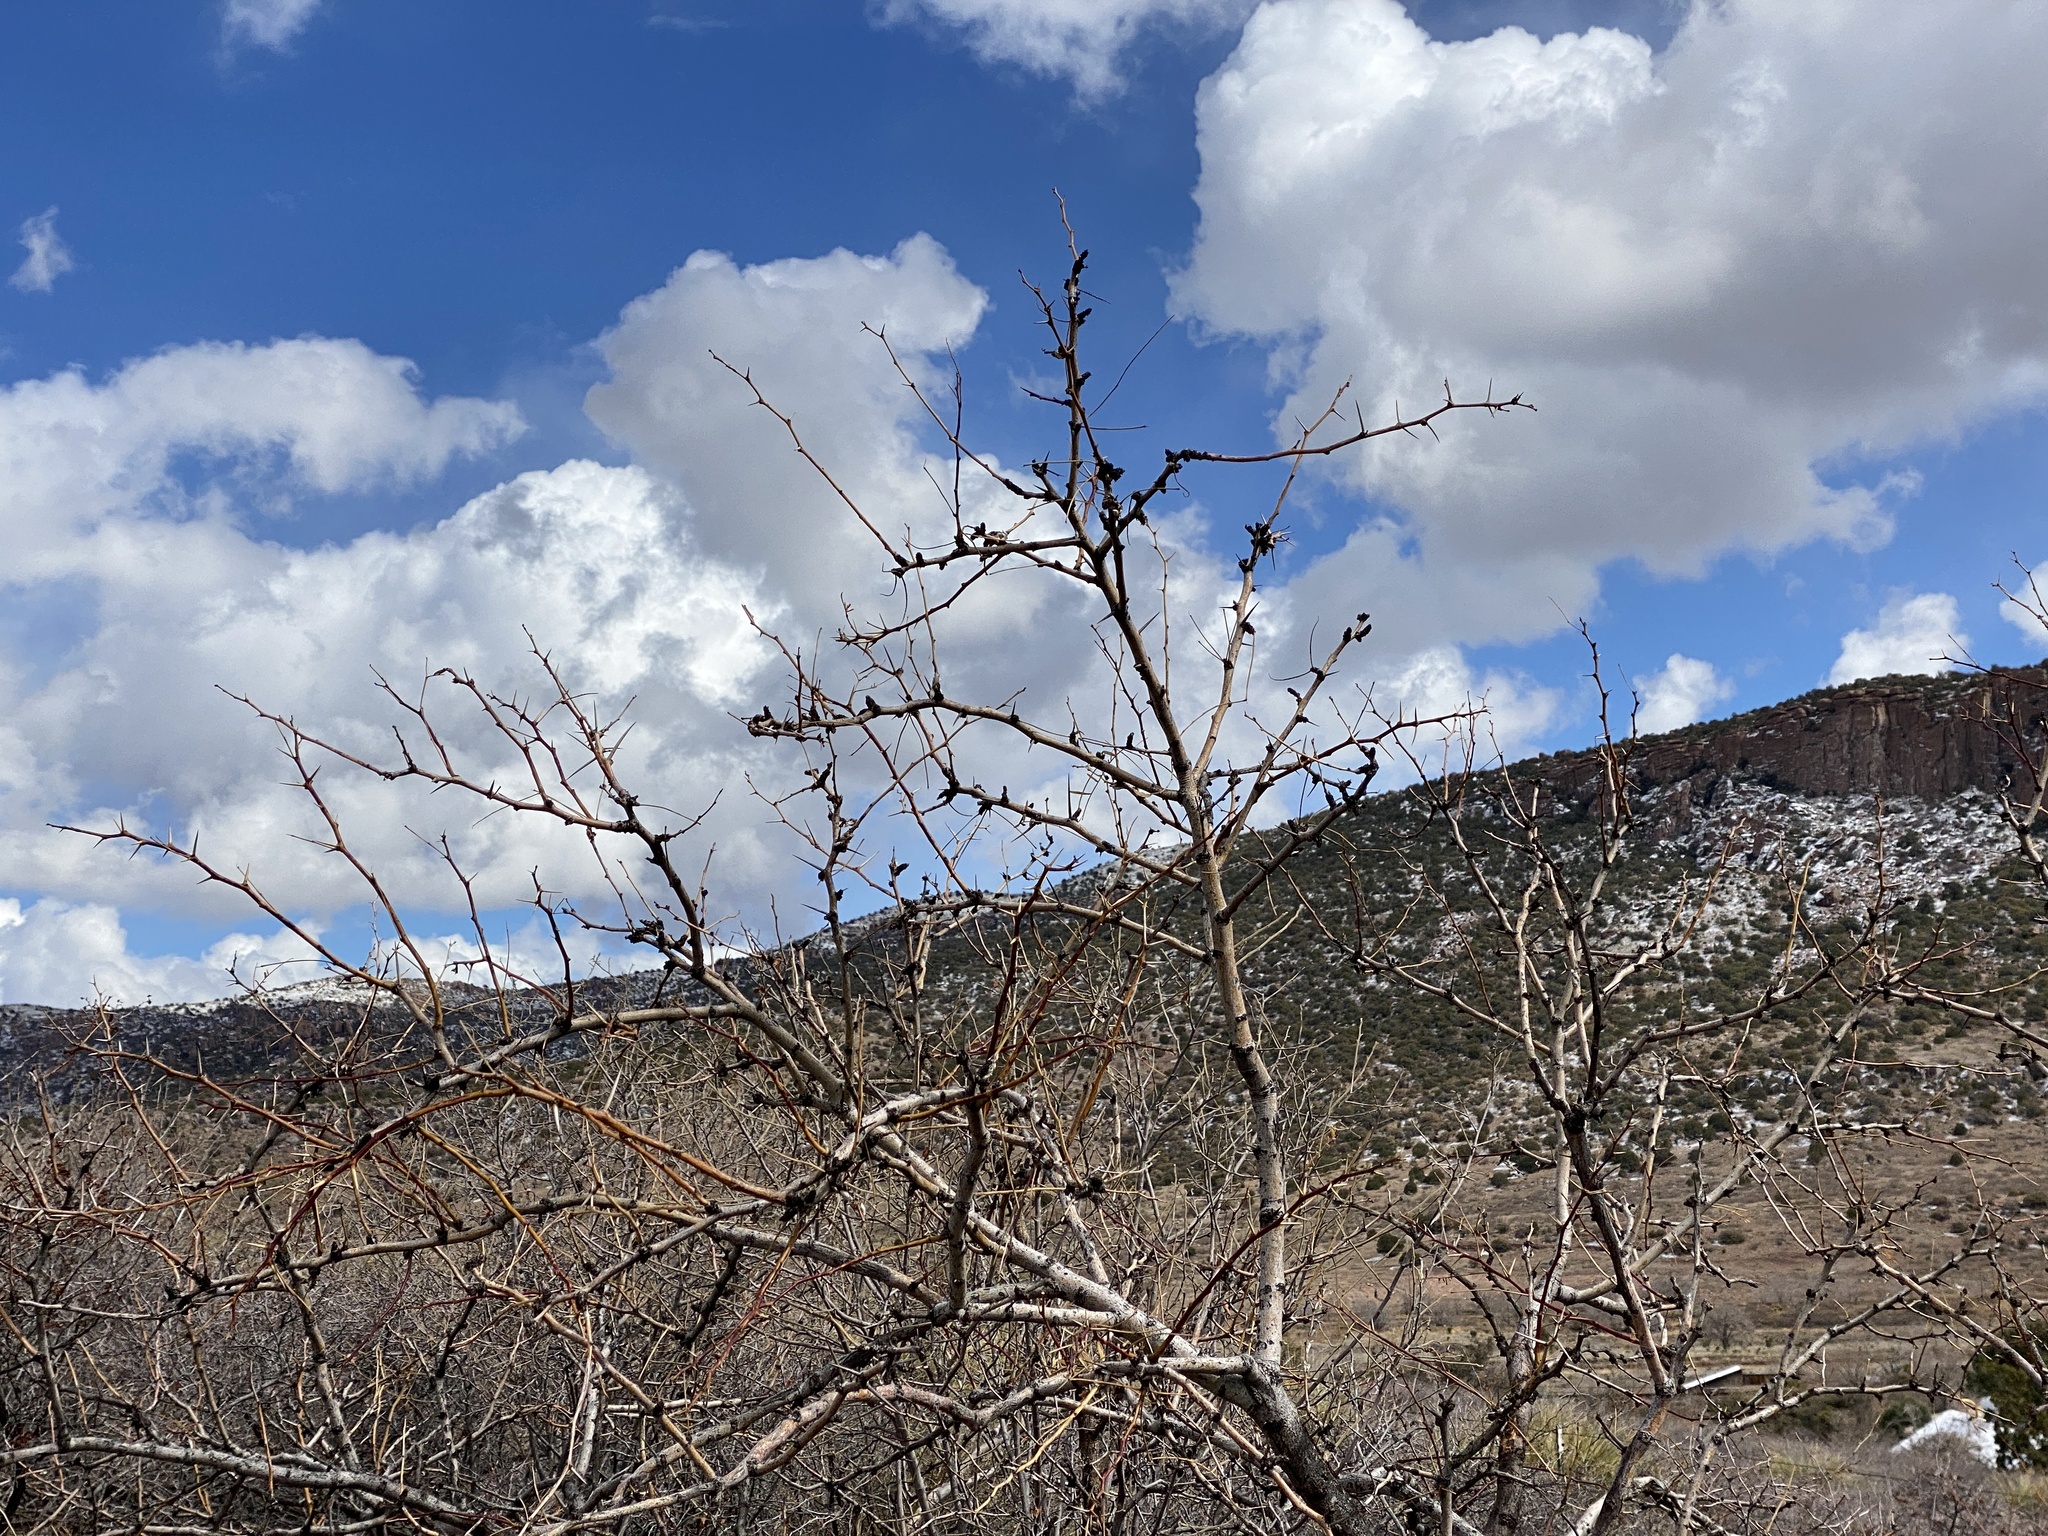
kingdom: Plantae
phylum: Tracheophyta
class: Magnoliopsida
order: Fabales
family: Fabaceae
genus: Prosopis
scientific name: Prosopis glandulosa
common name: Honey mesquite
